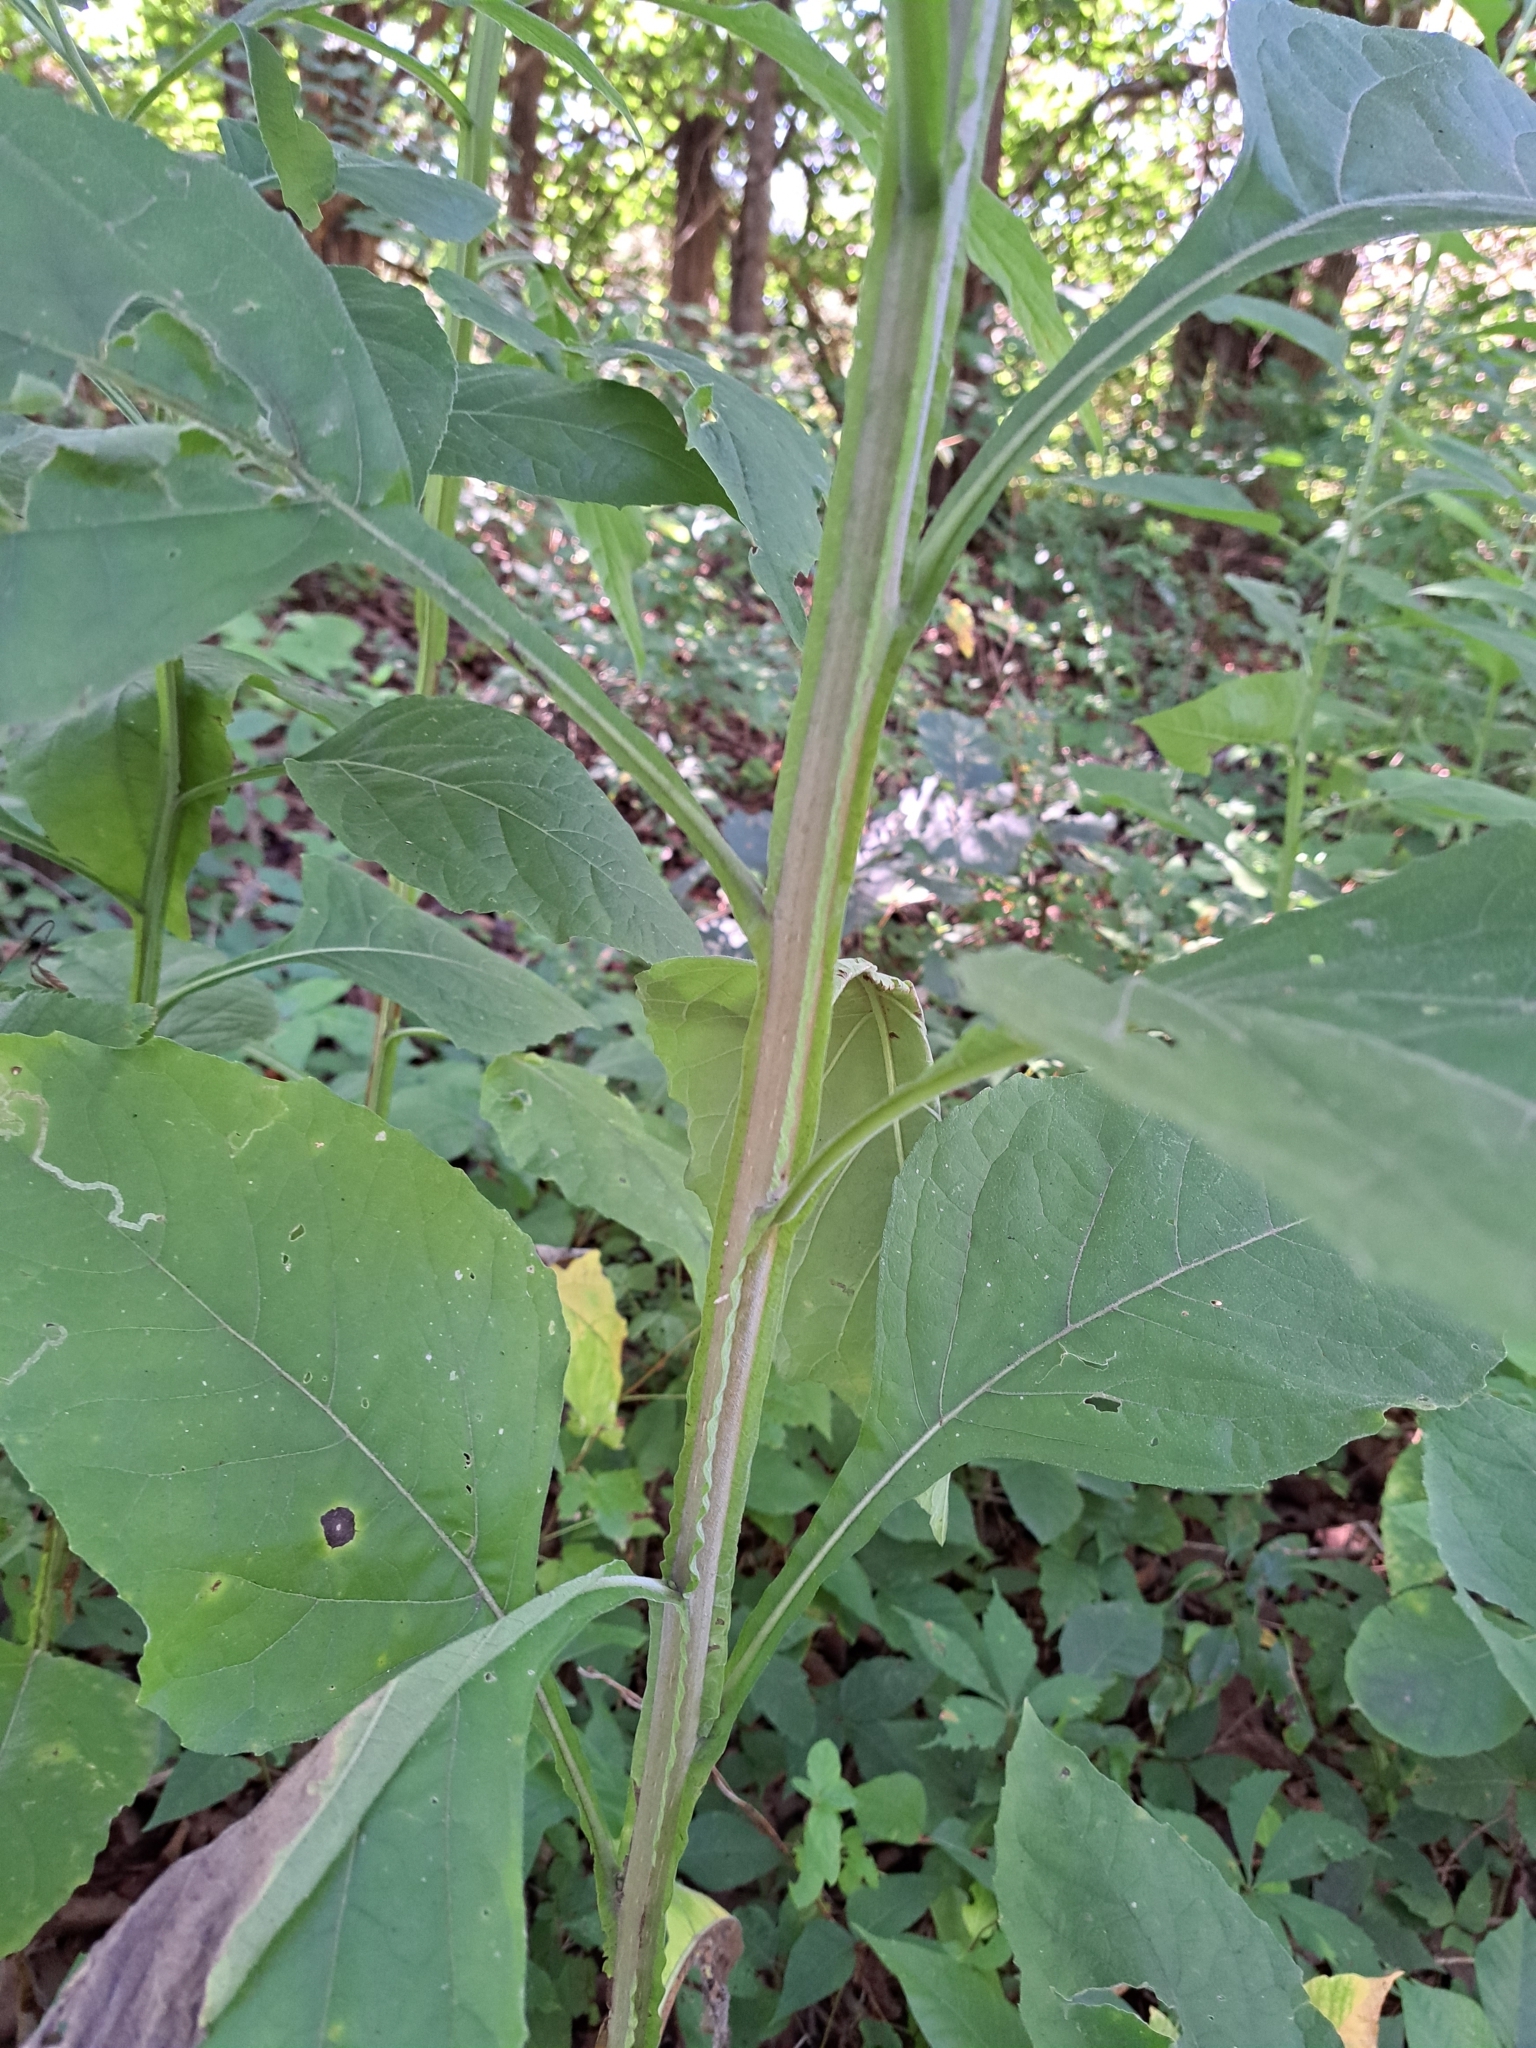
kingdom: Plantae
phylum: Tracheophyta
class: Magnoliopsida
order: Asterales
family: Asteraceae
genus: Verbesina
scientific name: Verbesina virginica
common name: Frostweed
